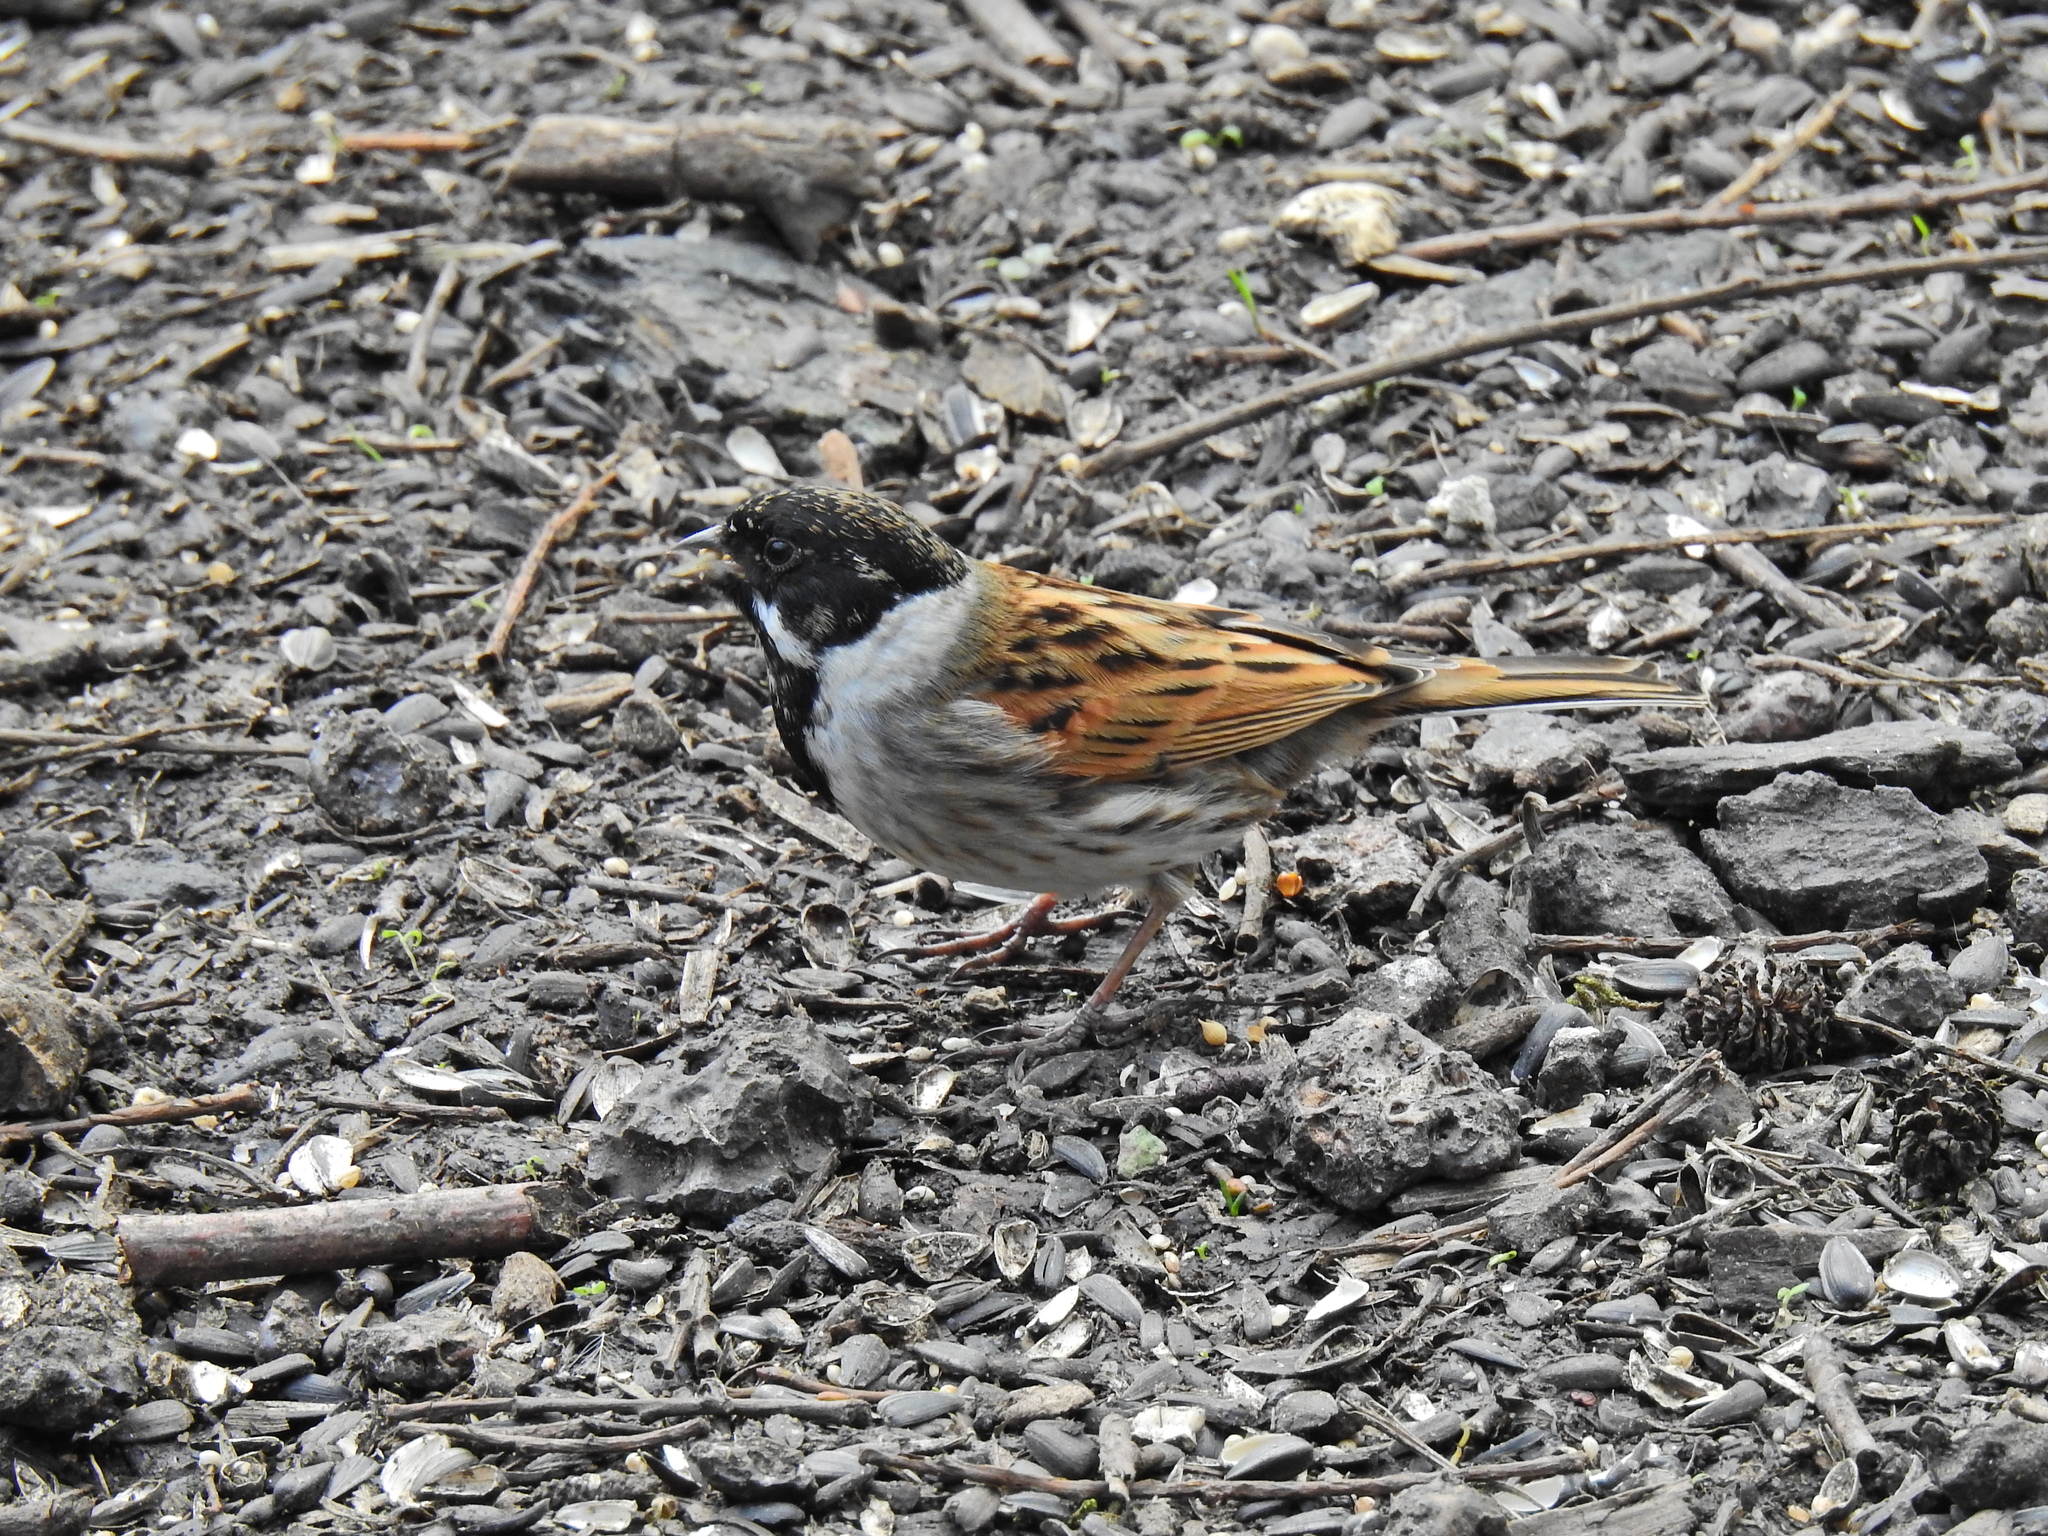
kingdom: Animalia
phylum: Chordata
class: Aves
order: Passeriformes
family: Emberizidae
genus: Emberiza
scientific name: Emberiza schoeniclus
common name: Reed bunting
